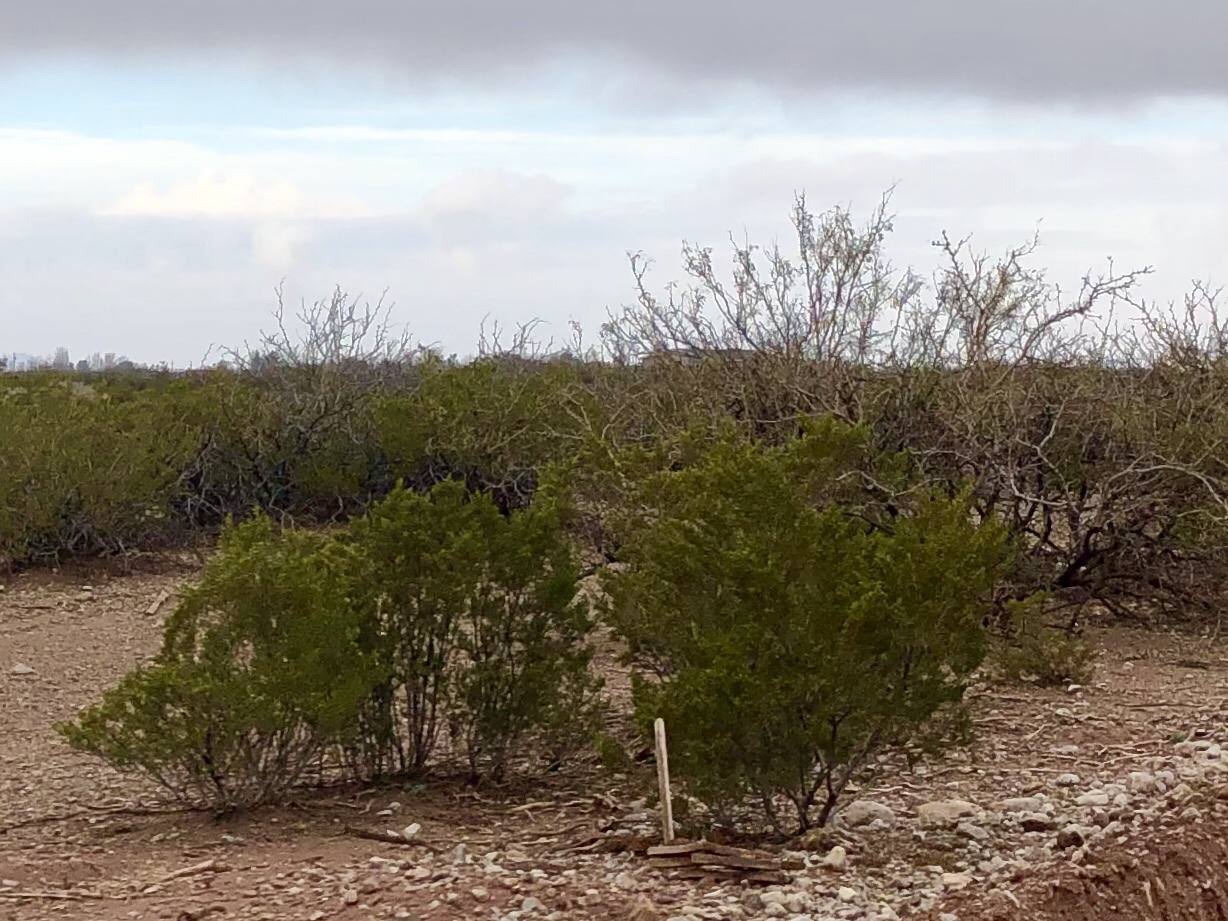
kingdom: Plantae
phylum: Tracheophyta
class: Magnoliopsida
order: Zygophyllales
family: Zygophyllaceae
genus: Larrea
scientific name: Larrea tridentata
